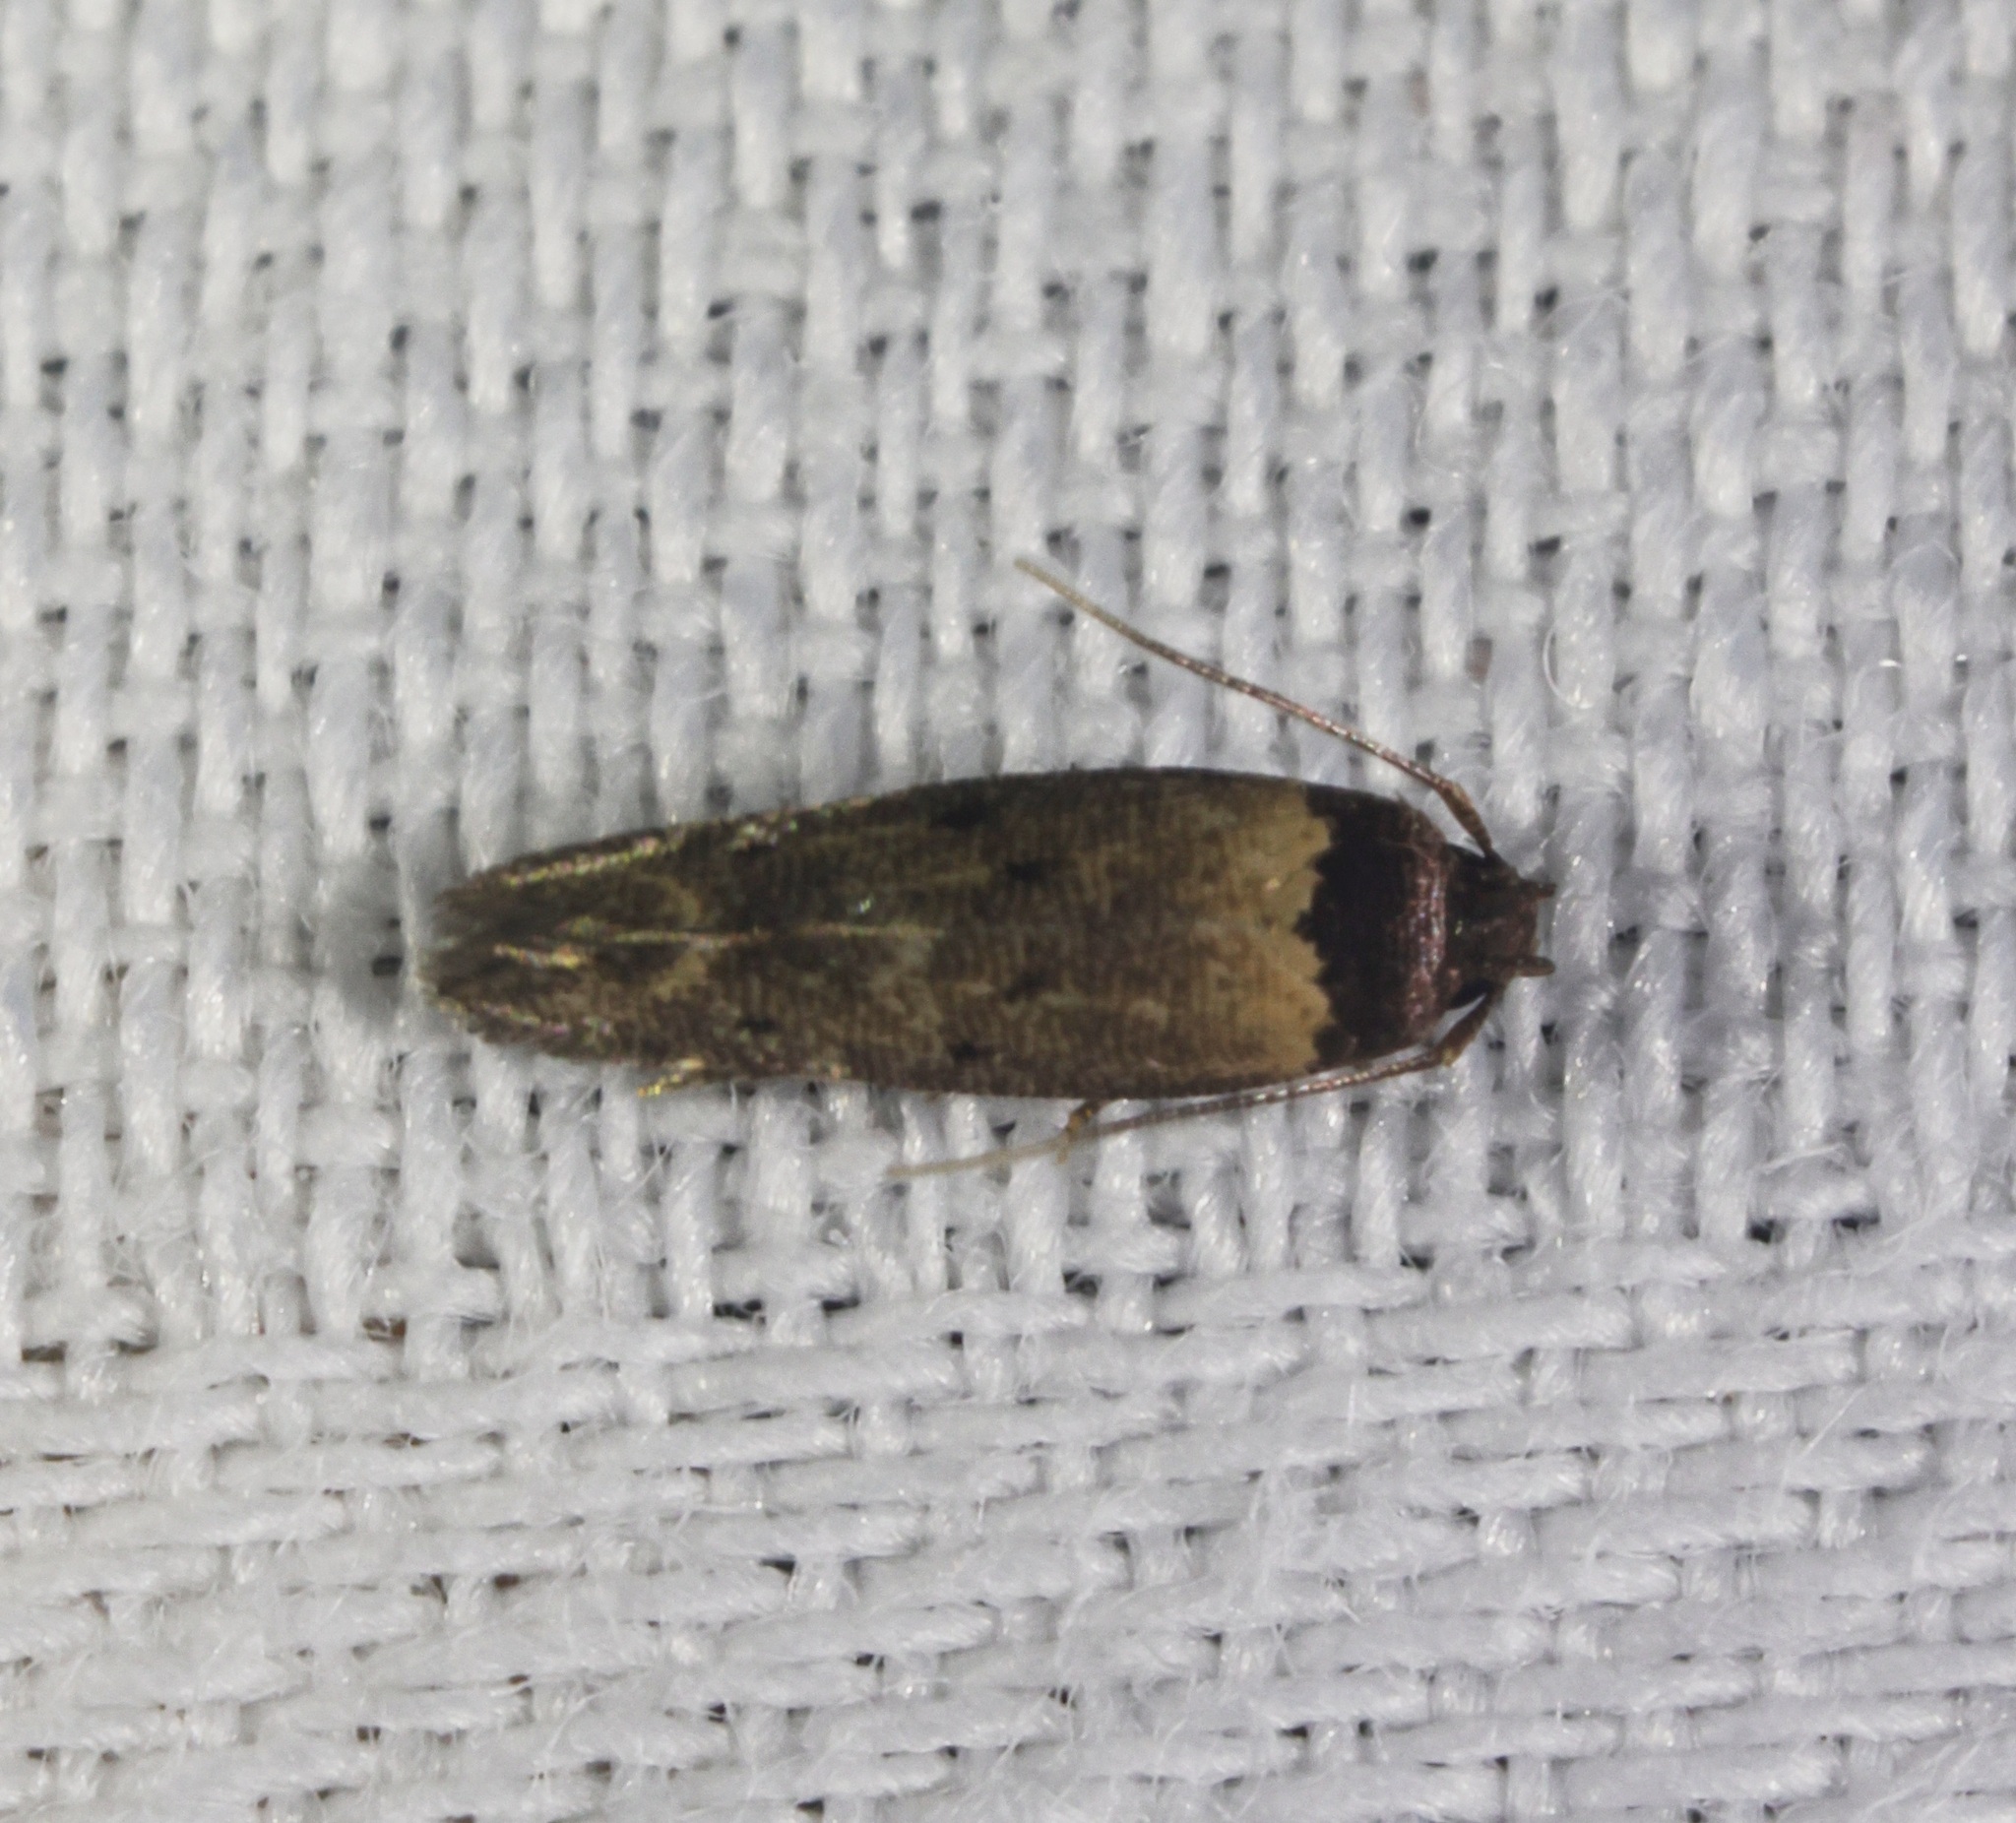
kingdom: Animalia
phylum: Arthropoda
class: Insecta
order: Lepidoptera
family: Cosmopterigidae
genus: Gisilia
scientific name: Gisilia thoracista
